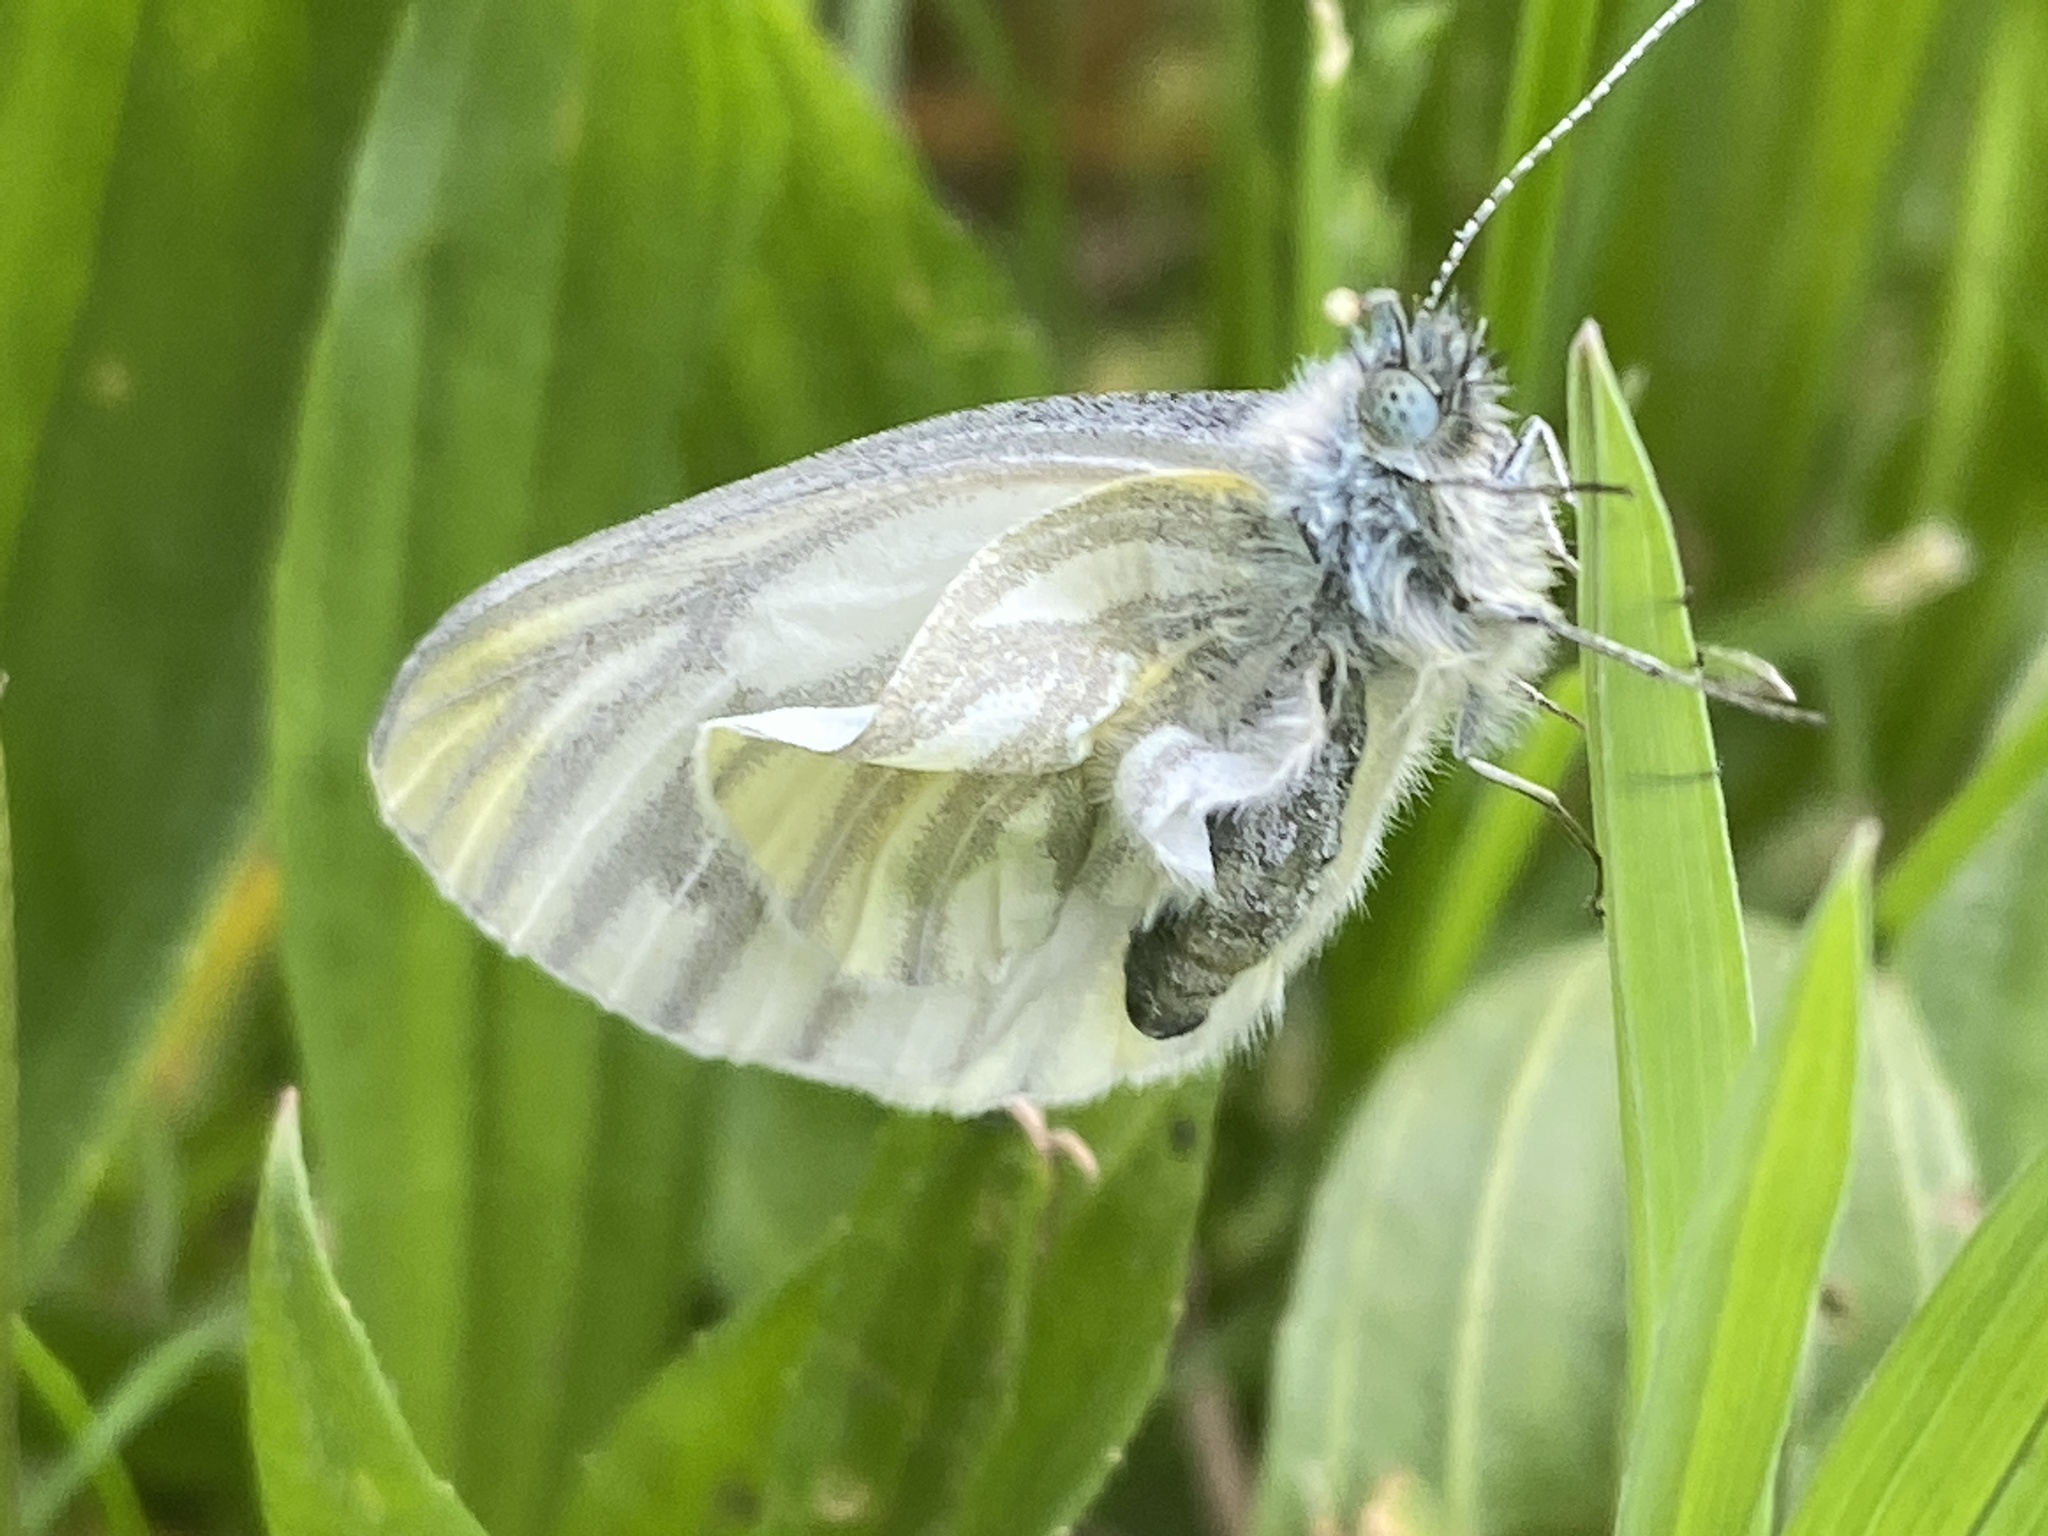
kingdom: Animalia
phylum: Arthropoda
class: Insecta
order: Lepidoptera
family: Pieridae
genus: Pieris
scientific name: Pieris napi
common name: Green-veined white
